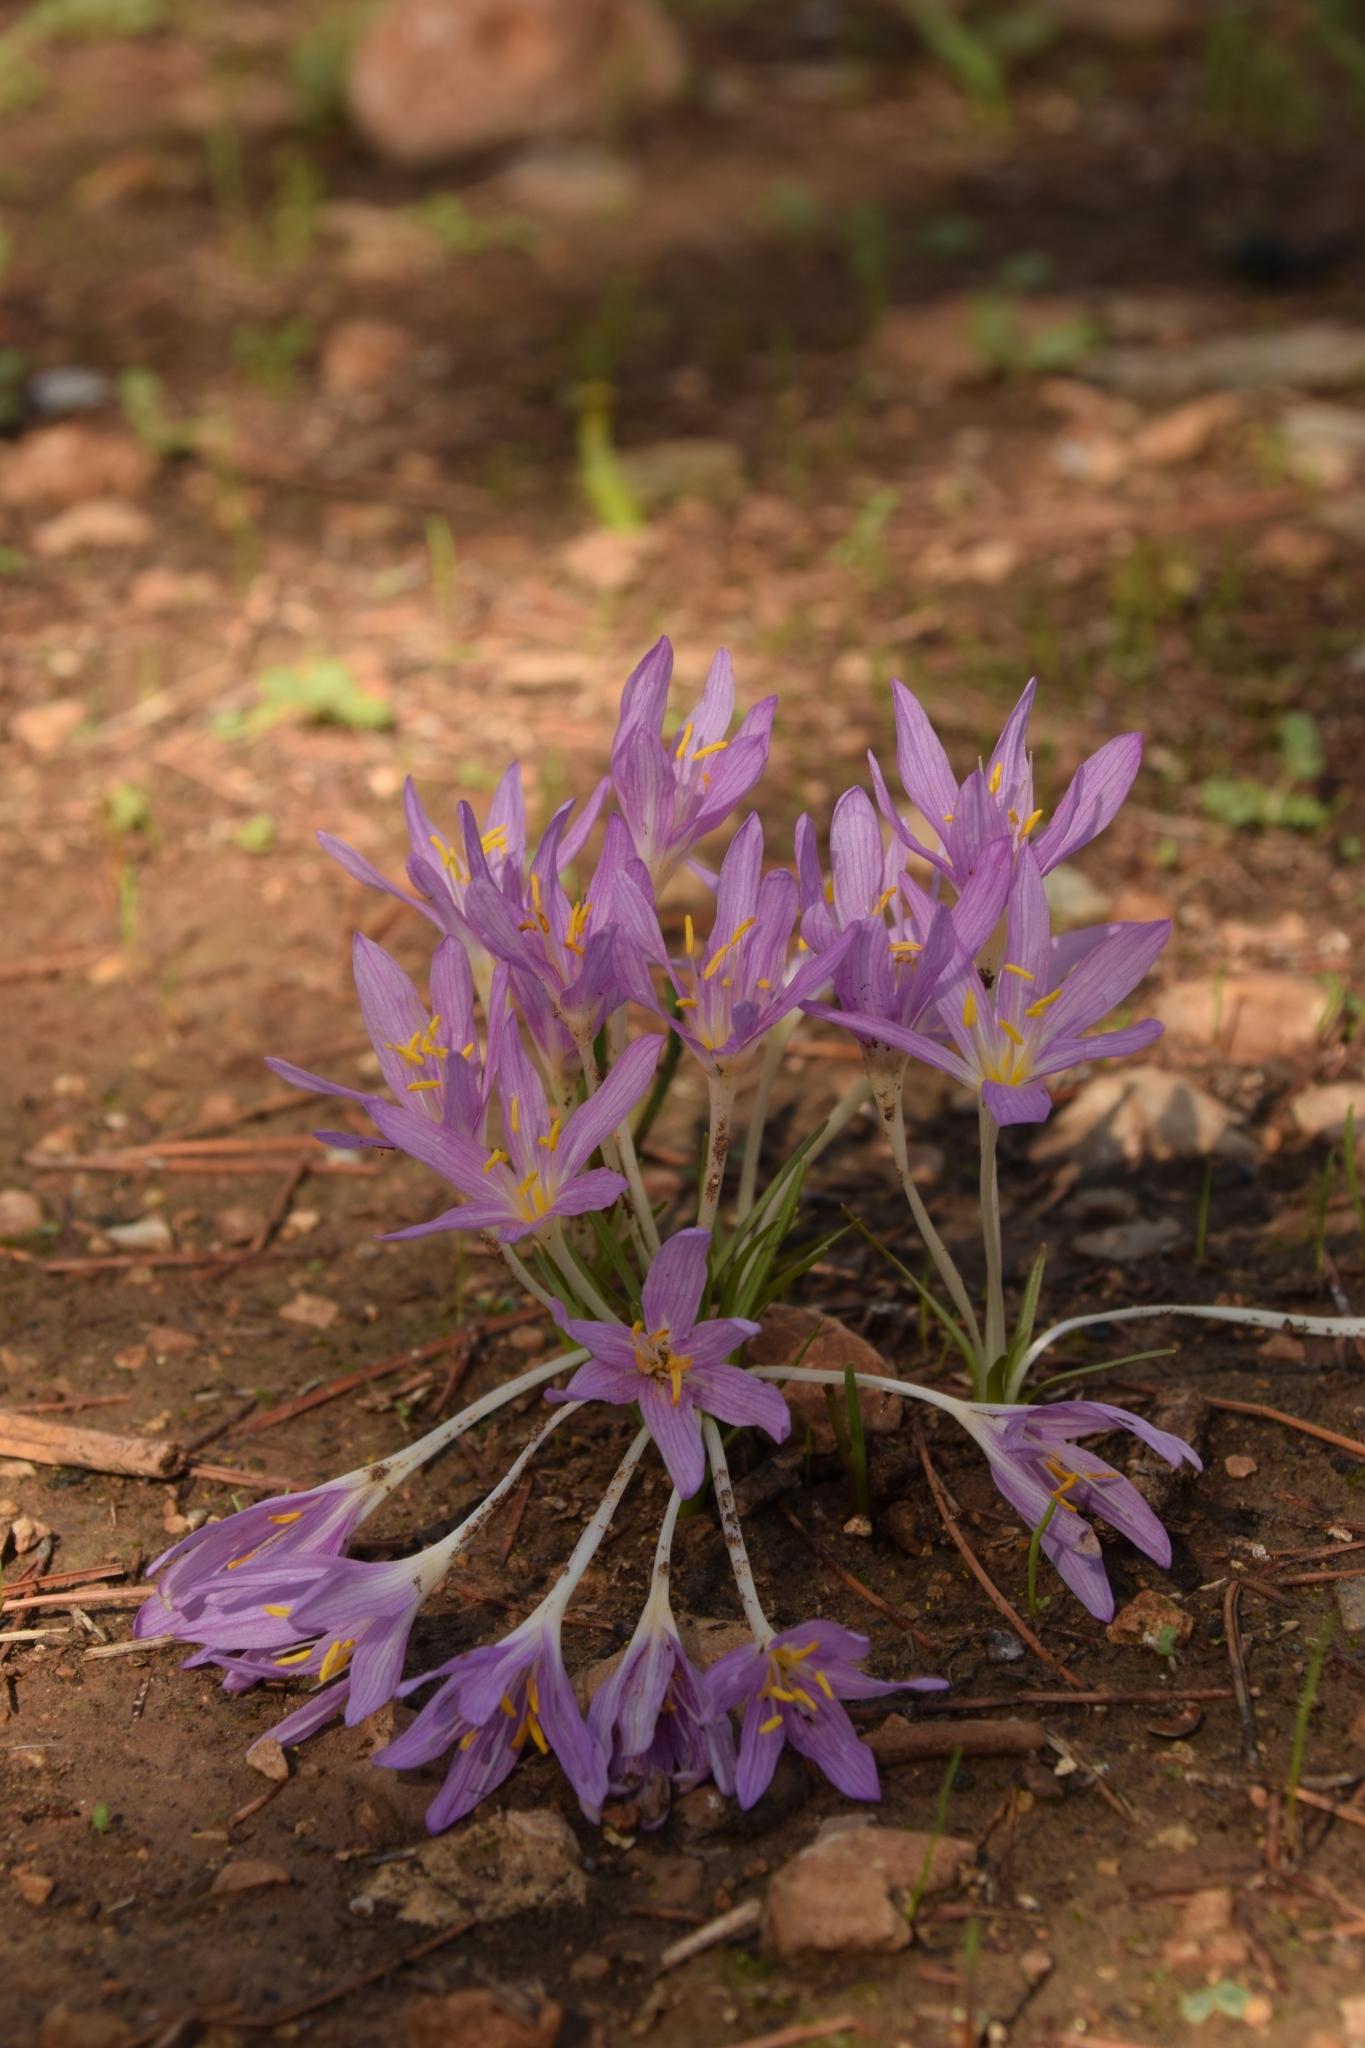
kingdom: Plantae
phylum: Tracheophyta
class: Liliopsida
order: Liliales
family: Colchicaceae
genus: Colchicum
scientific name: Colchicum stevenii
